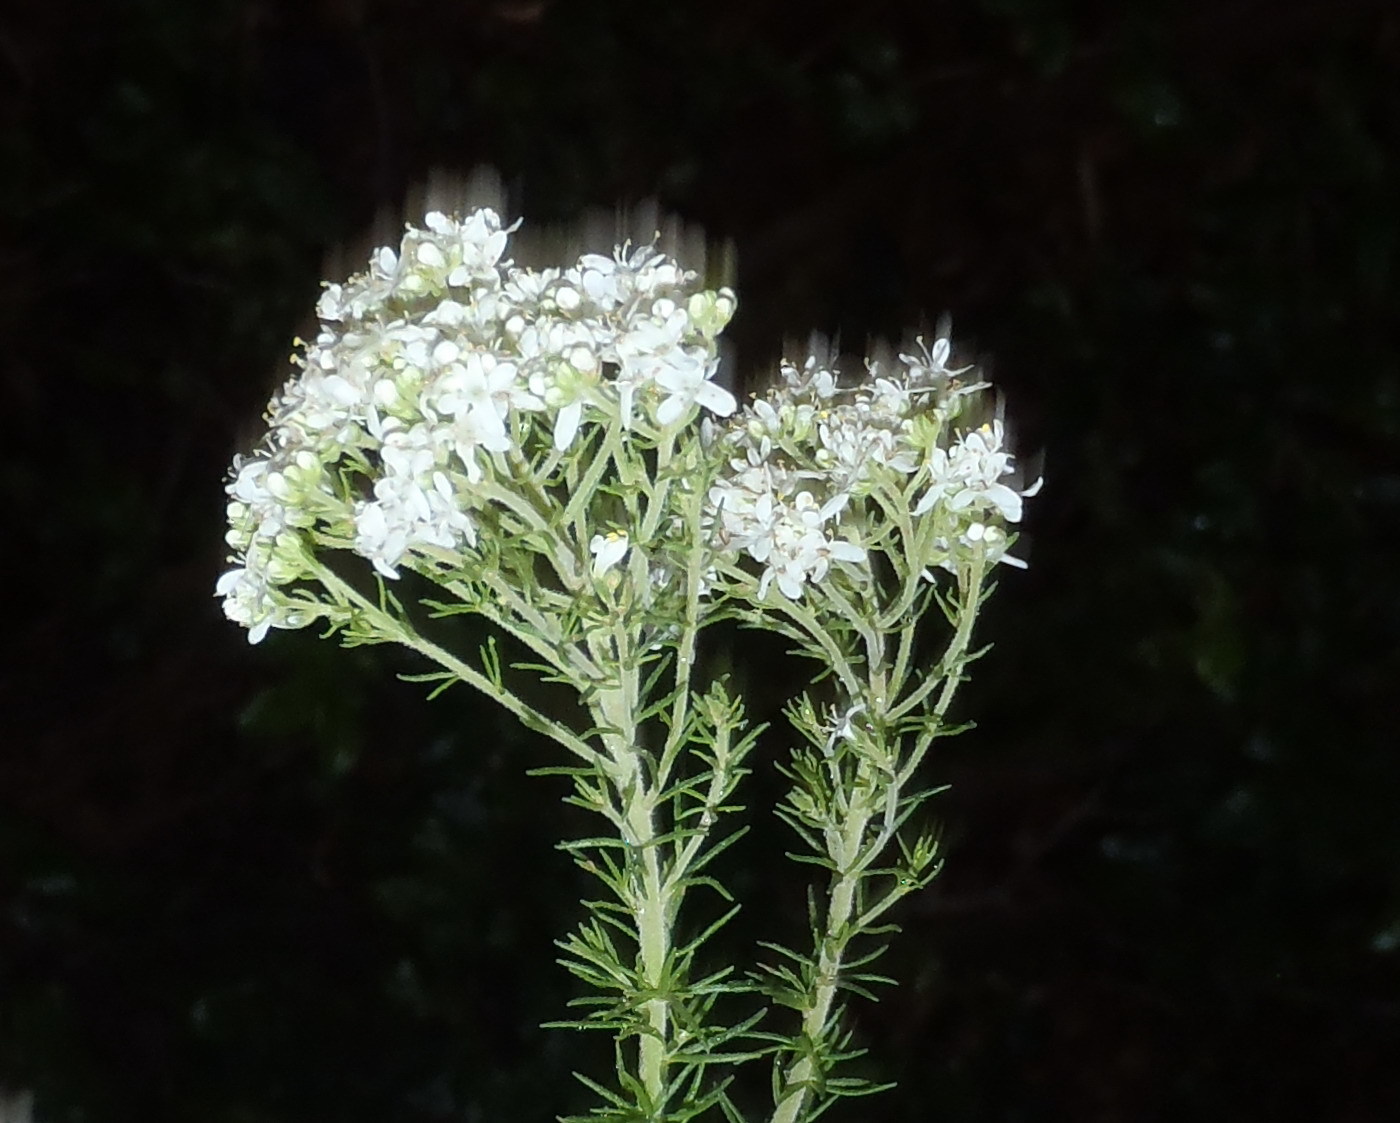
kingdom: Plantae
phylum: Tracheophyta
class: Magnoliopsida
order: Lamiales
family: Scrophulariaceae
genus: Selago
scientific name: Selago corymbosa
